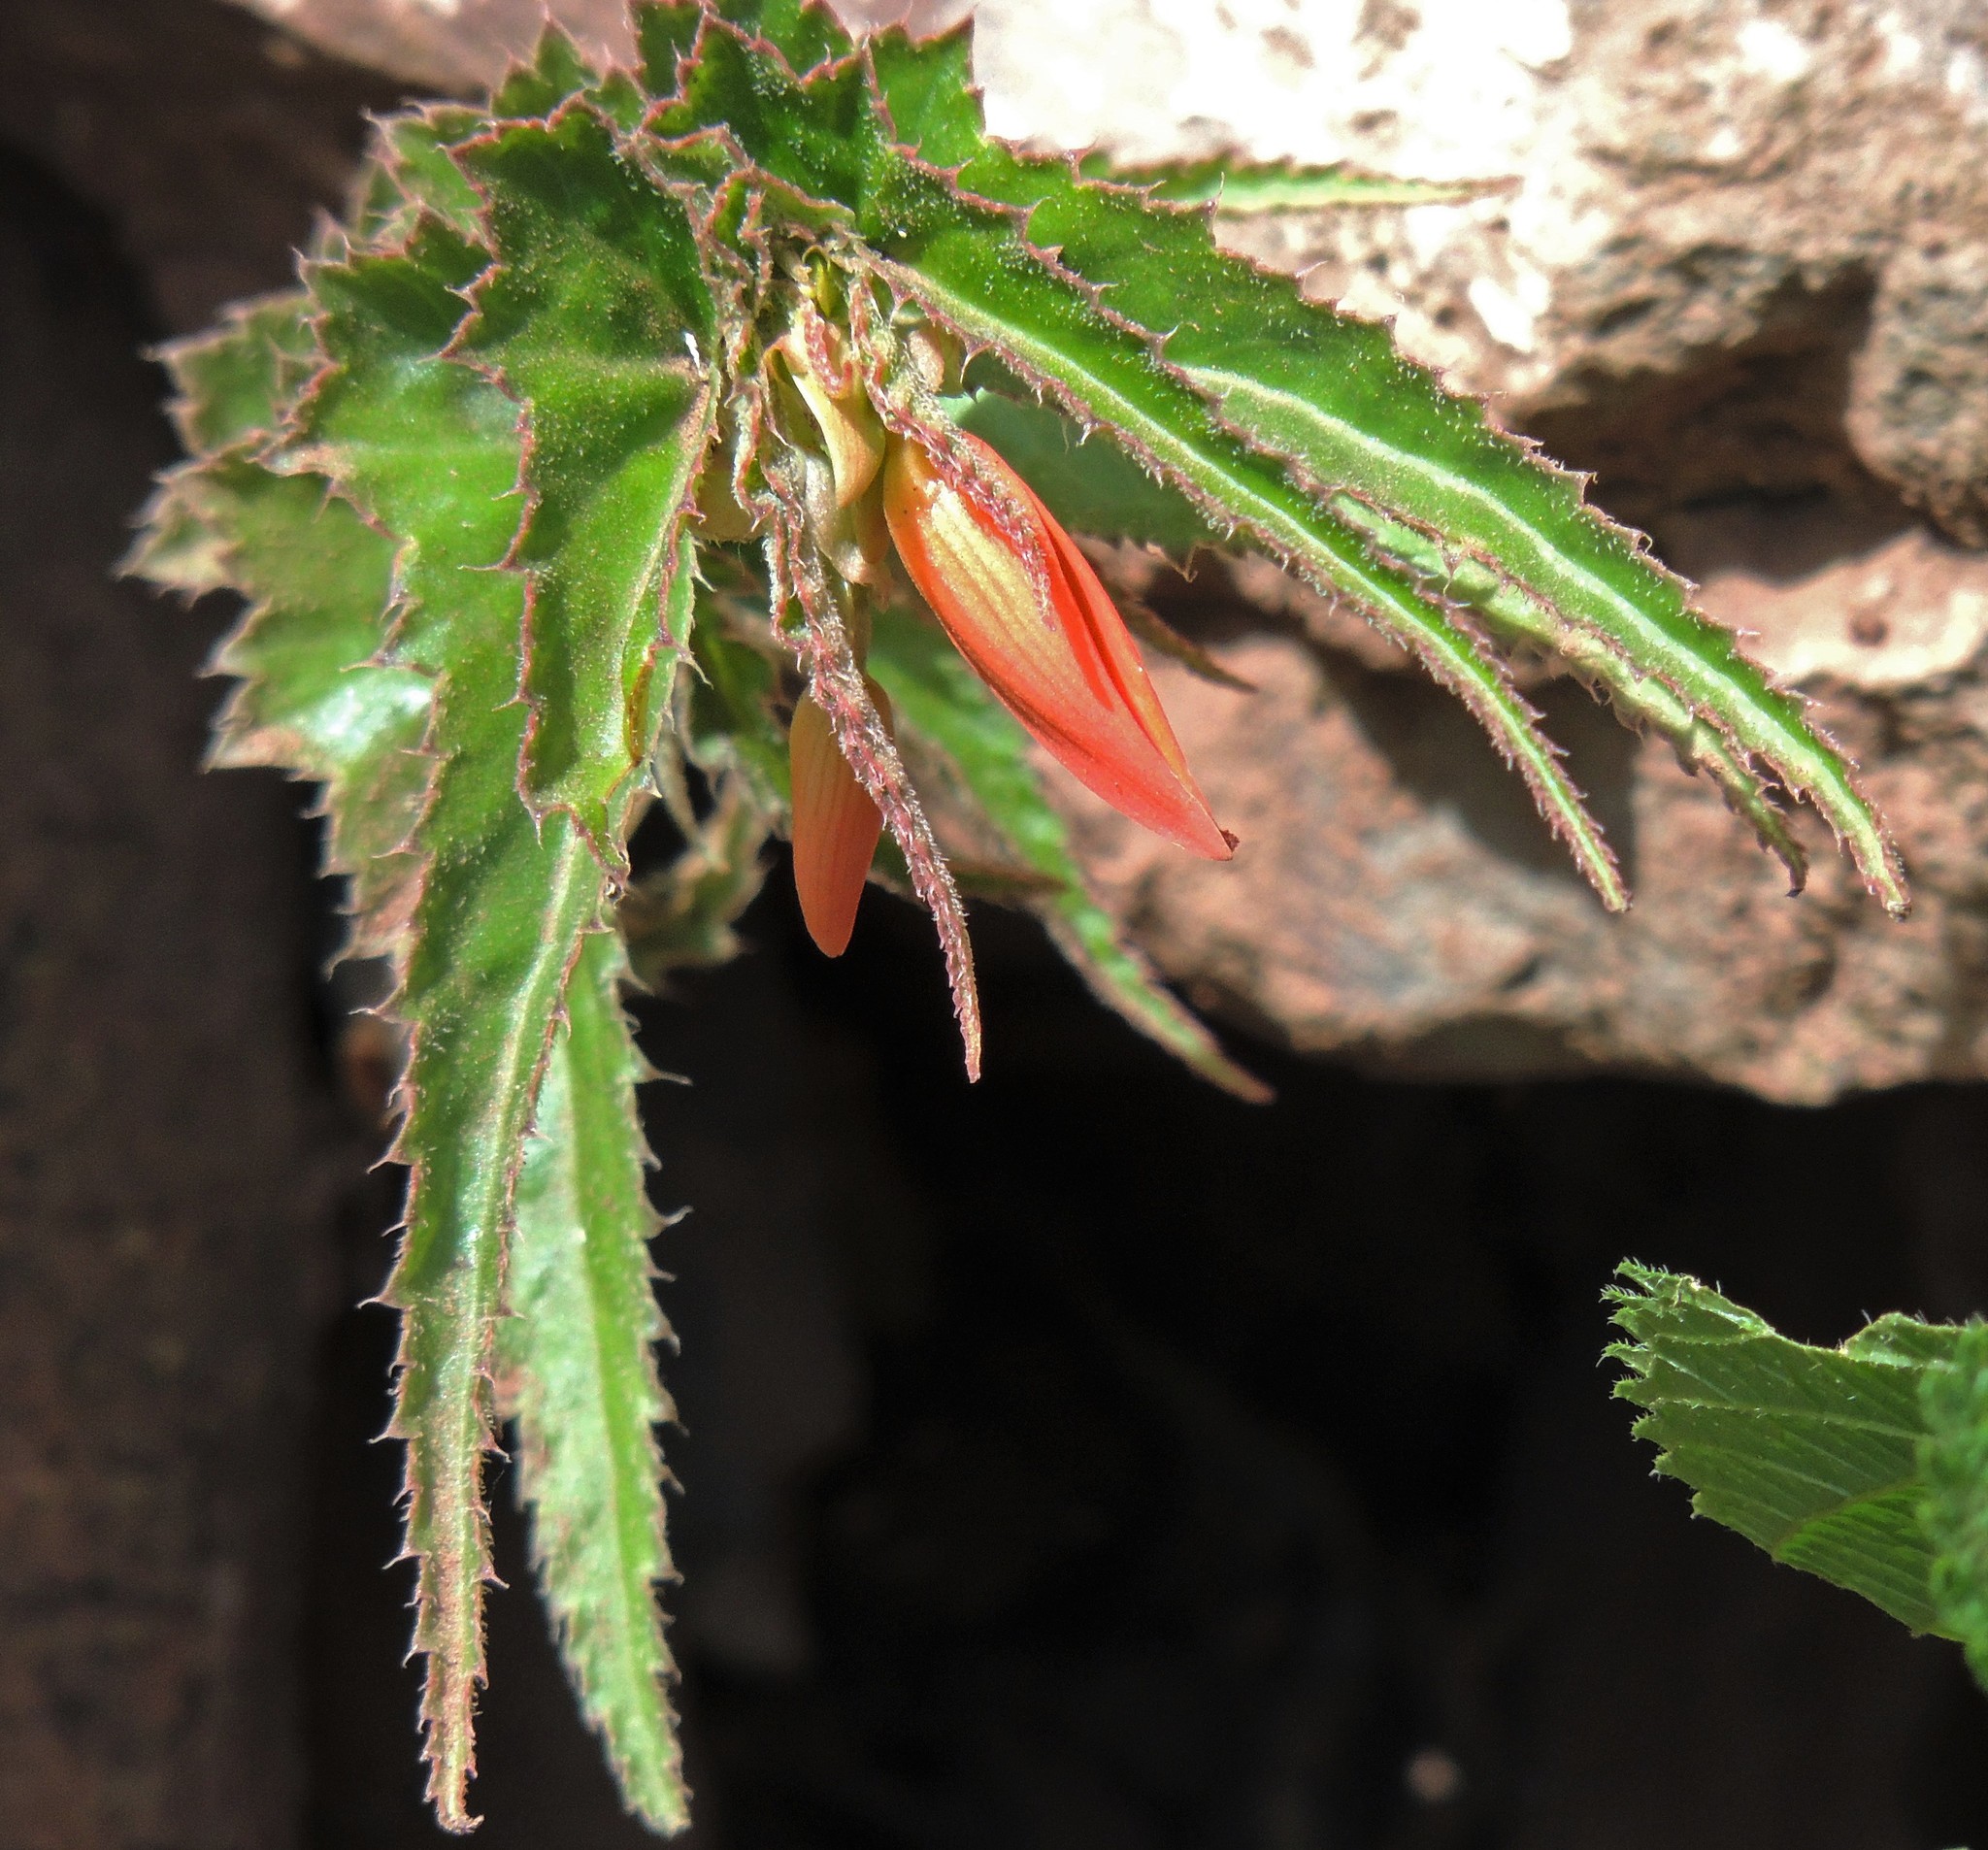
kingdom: Plantae
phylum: Tracheophyta
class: Magnoliopsida
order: Cucurbitales
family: Begoniaceae
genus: Begonia
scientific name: Begonia boliviensis
